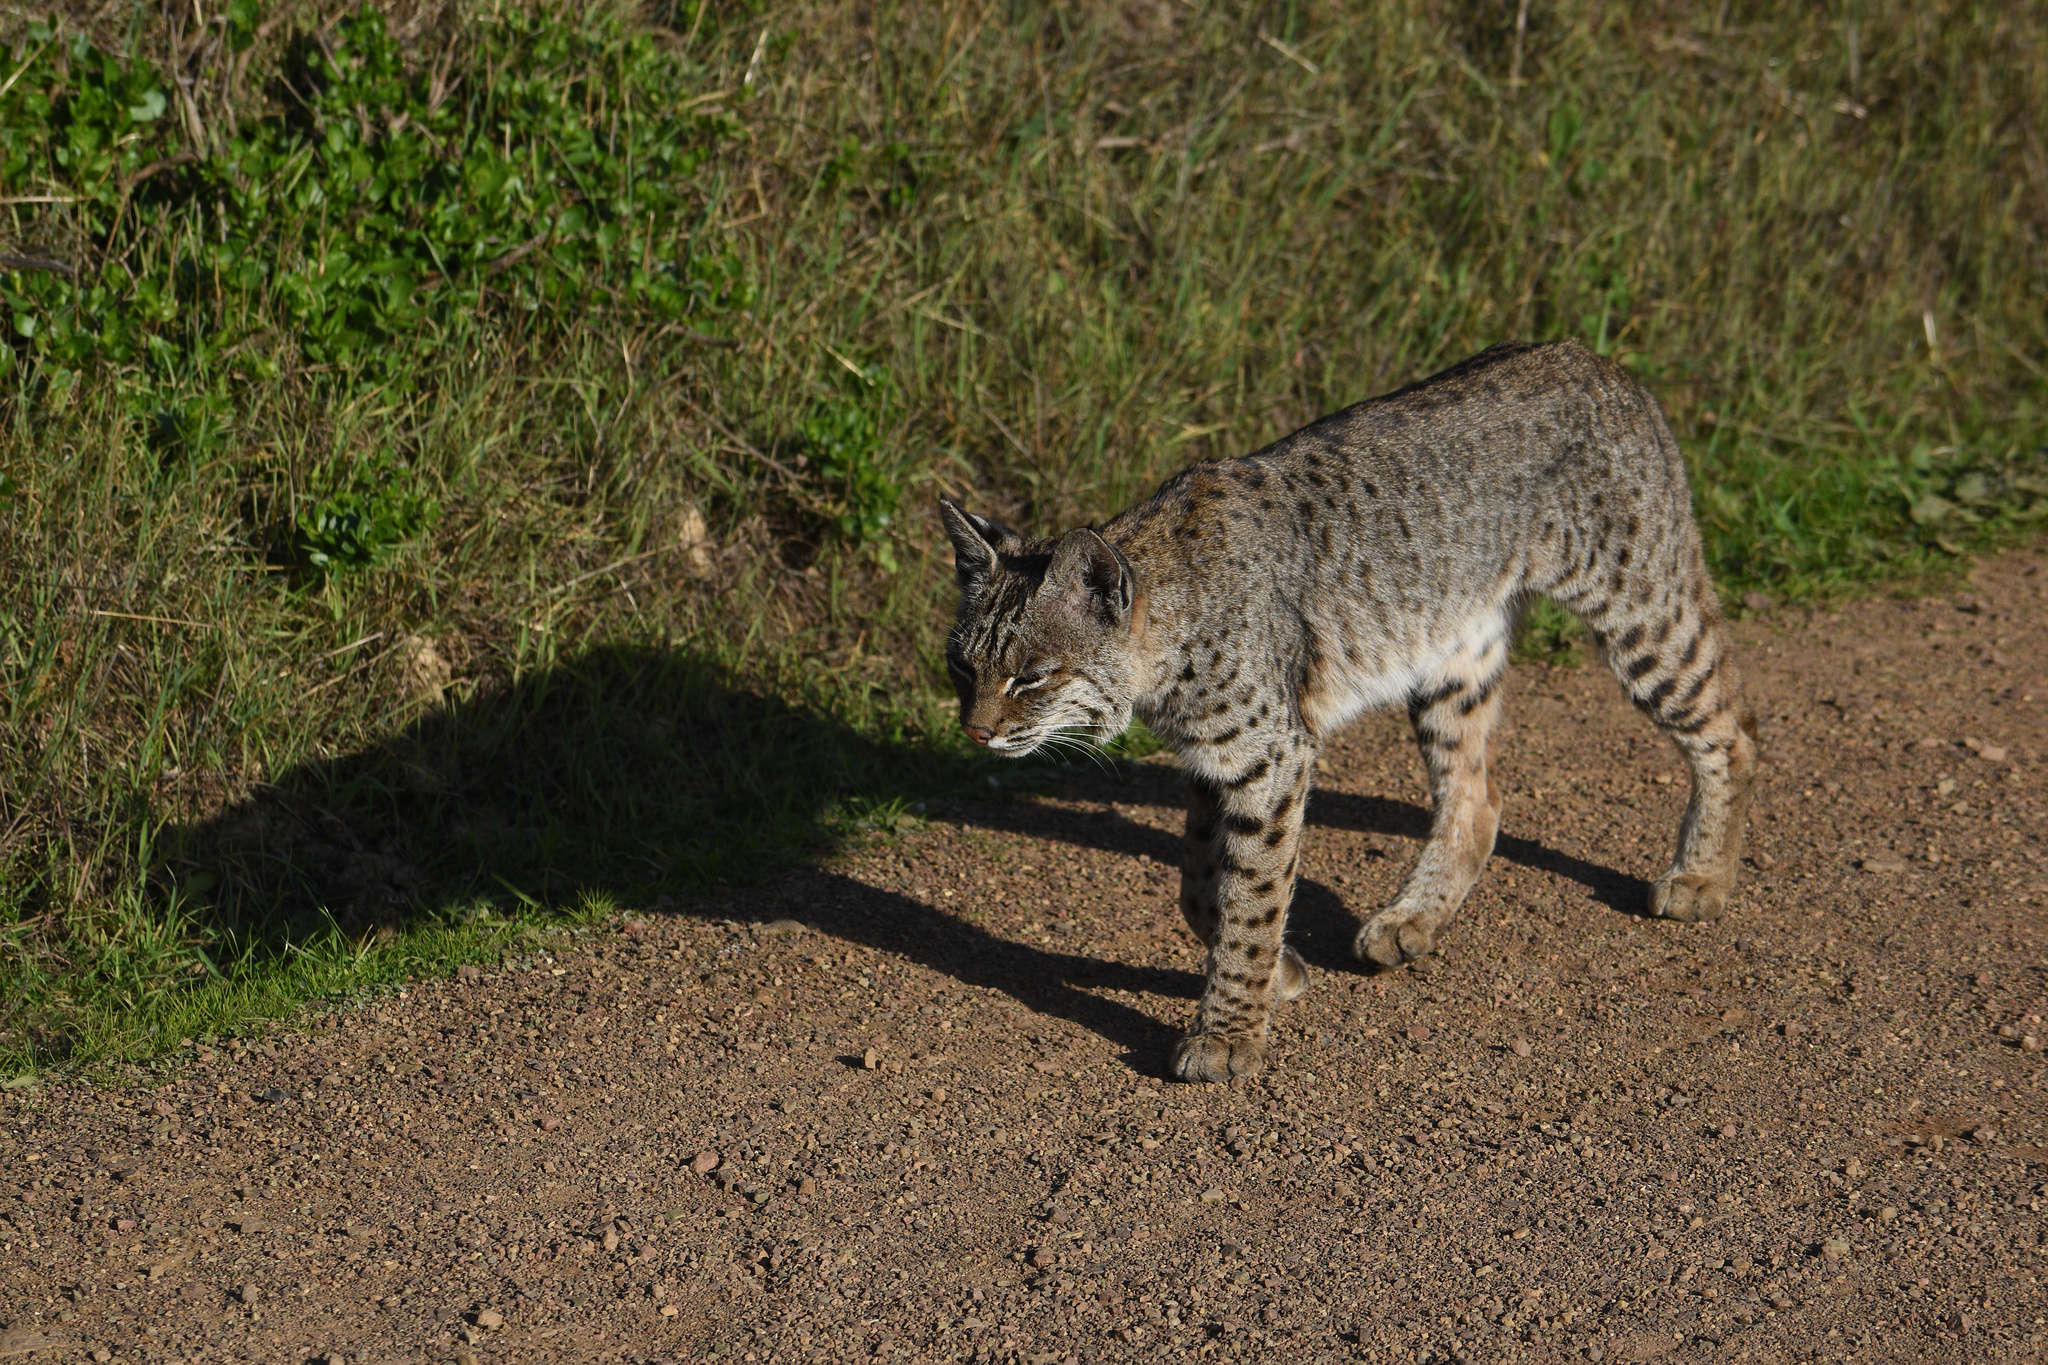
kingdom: Animalia
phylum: Chordata
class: Mammalia
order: Carnivora
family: Felidae
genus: Lynx
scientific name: Lynx rufus
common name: Bobcat
